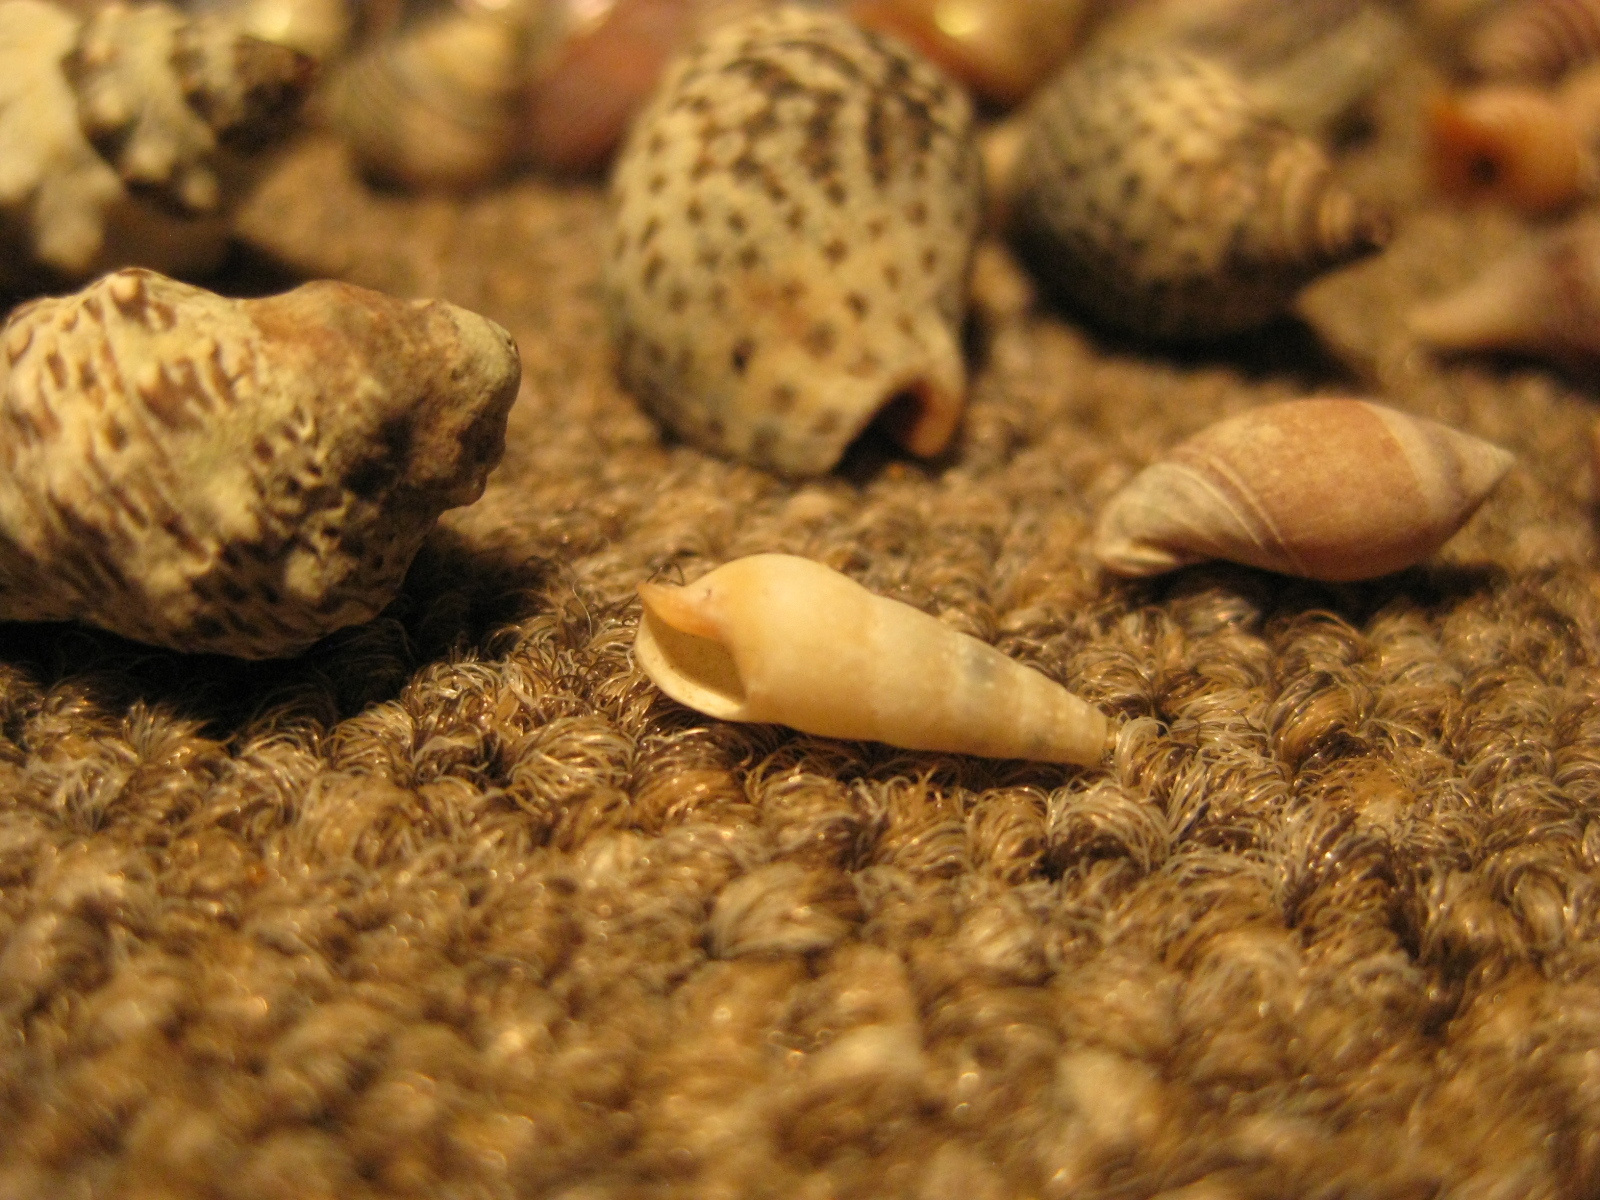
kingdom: Animalia
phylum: Mollusca
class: Gastropoda
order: Neogastropoda
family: Terebridae
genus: Duplicaria
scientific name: Duplicaria tristis
